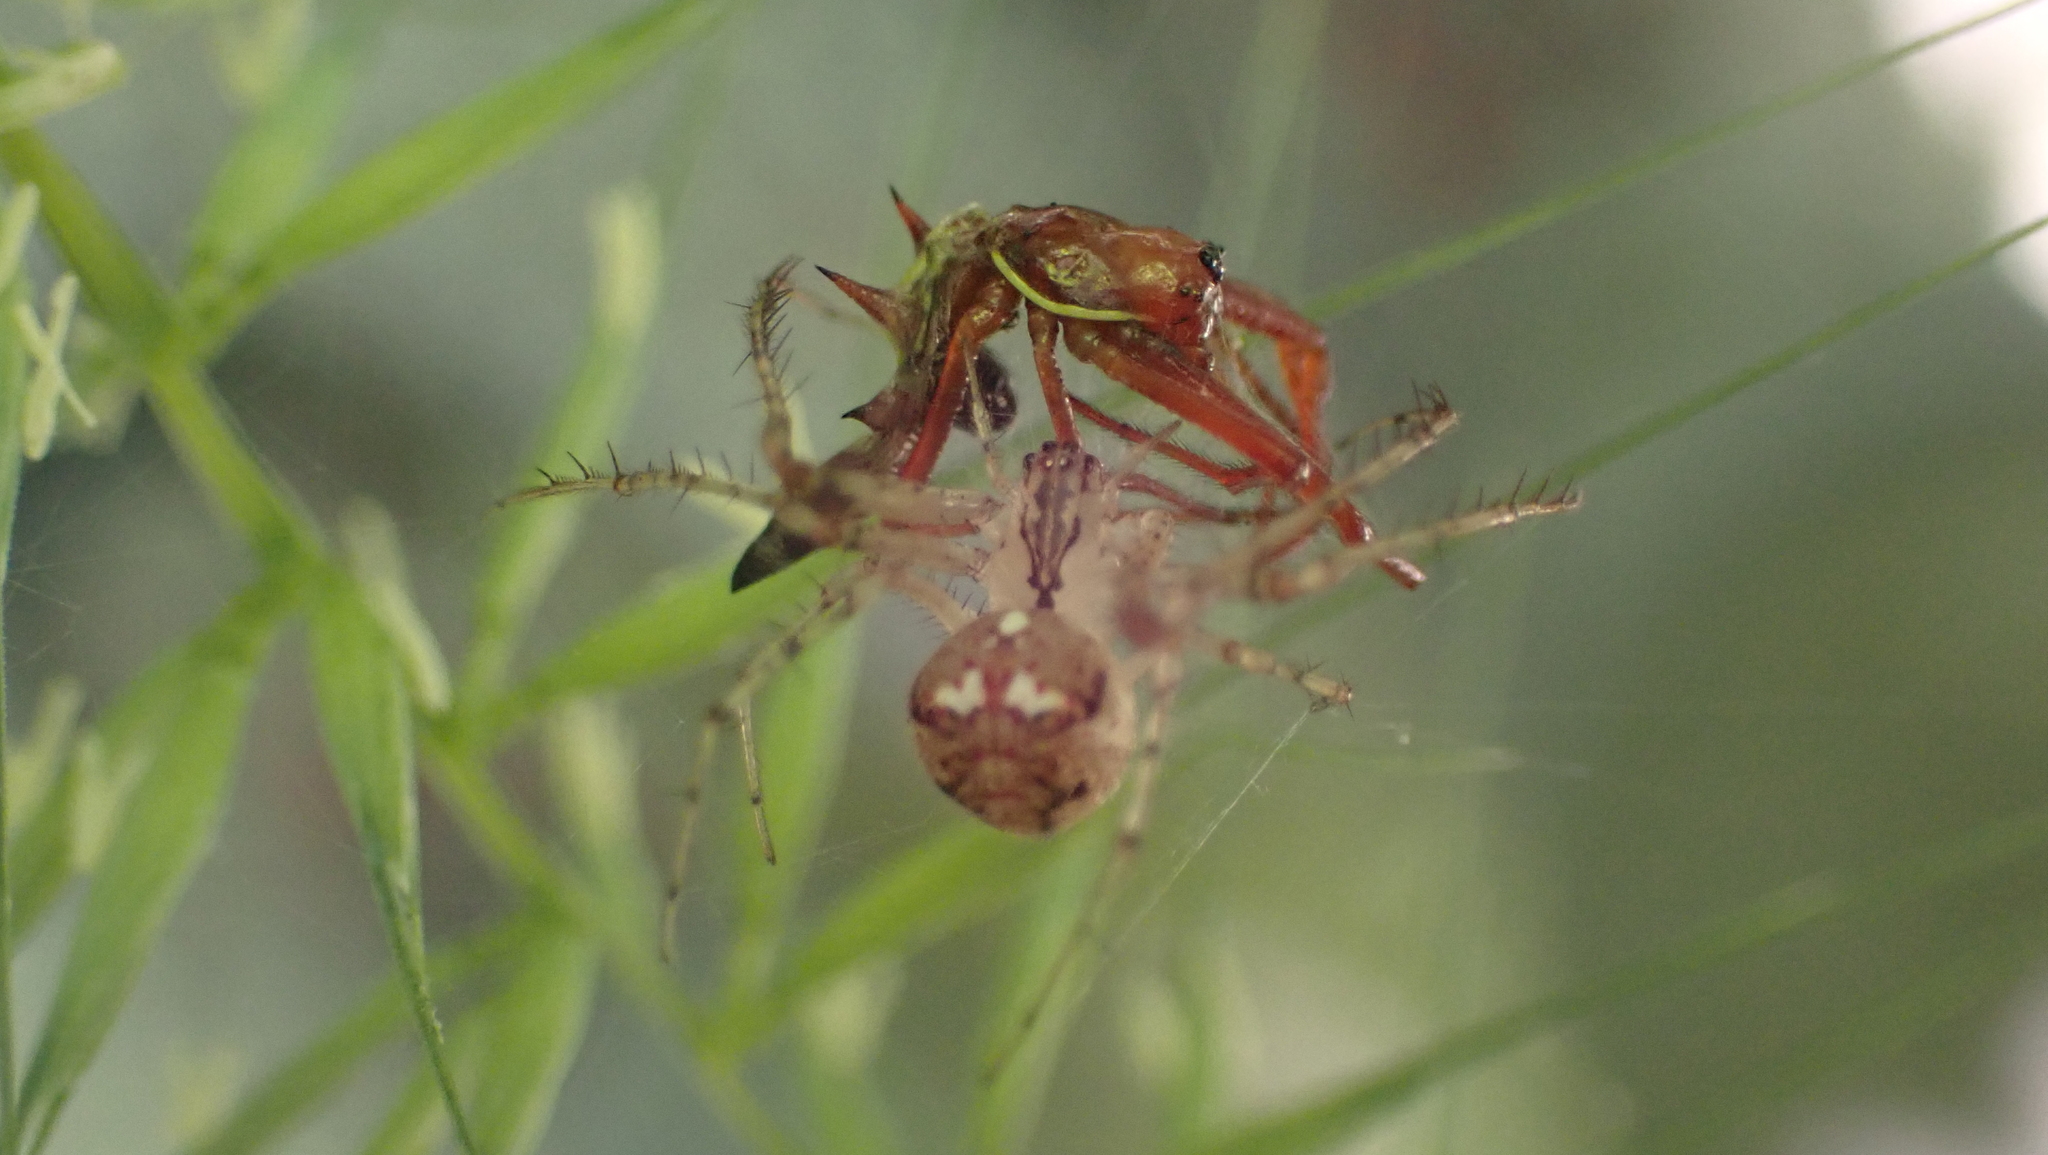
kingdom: Animalia
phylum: Arthropoda
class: Arachnida
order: Araneae
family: Araneidae
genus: Micrathena
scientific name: Micrathena sagittata
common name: Orb weavers
